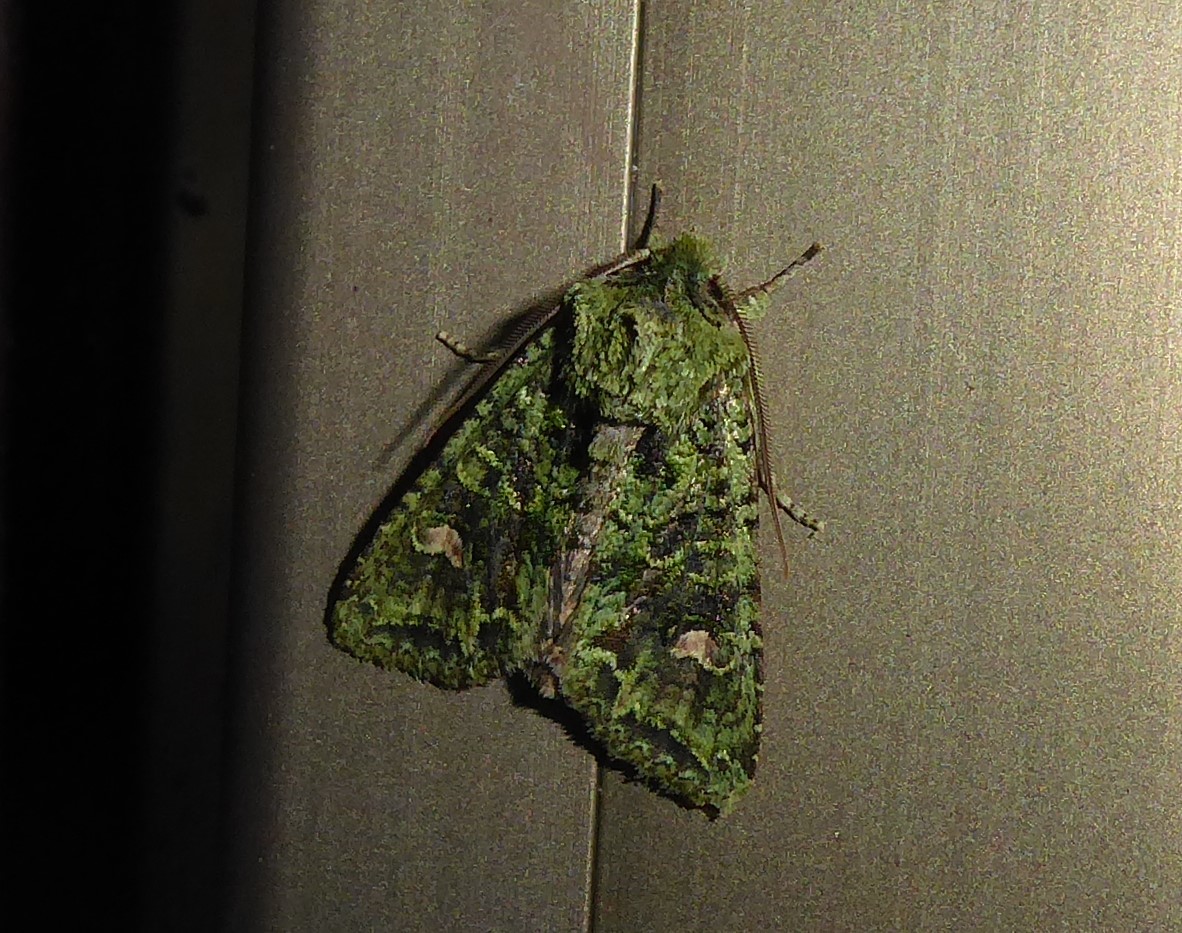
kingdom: Animalia
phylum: Arthropoda
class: Insecta
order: Lepidoptera
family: Noctuidae
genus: Ichneutica
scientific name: Ichneutica
